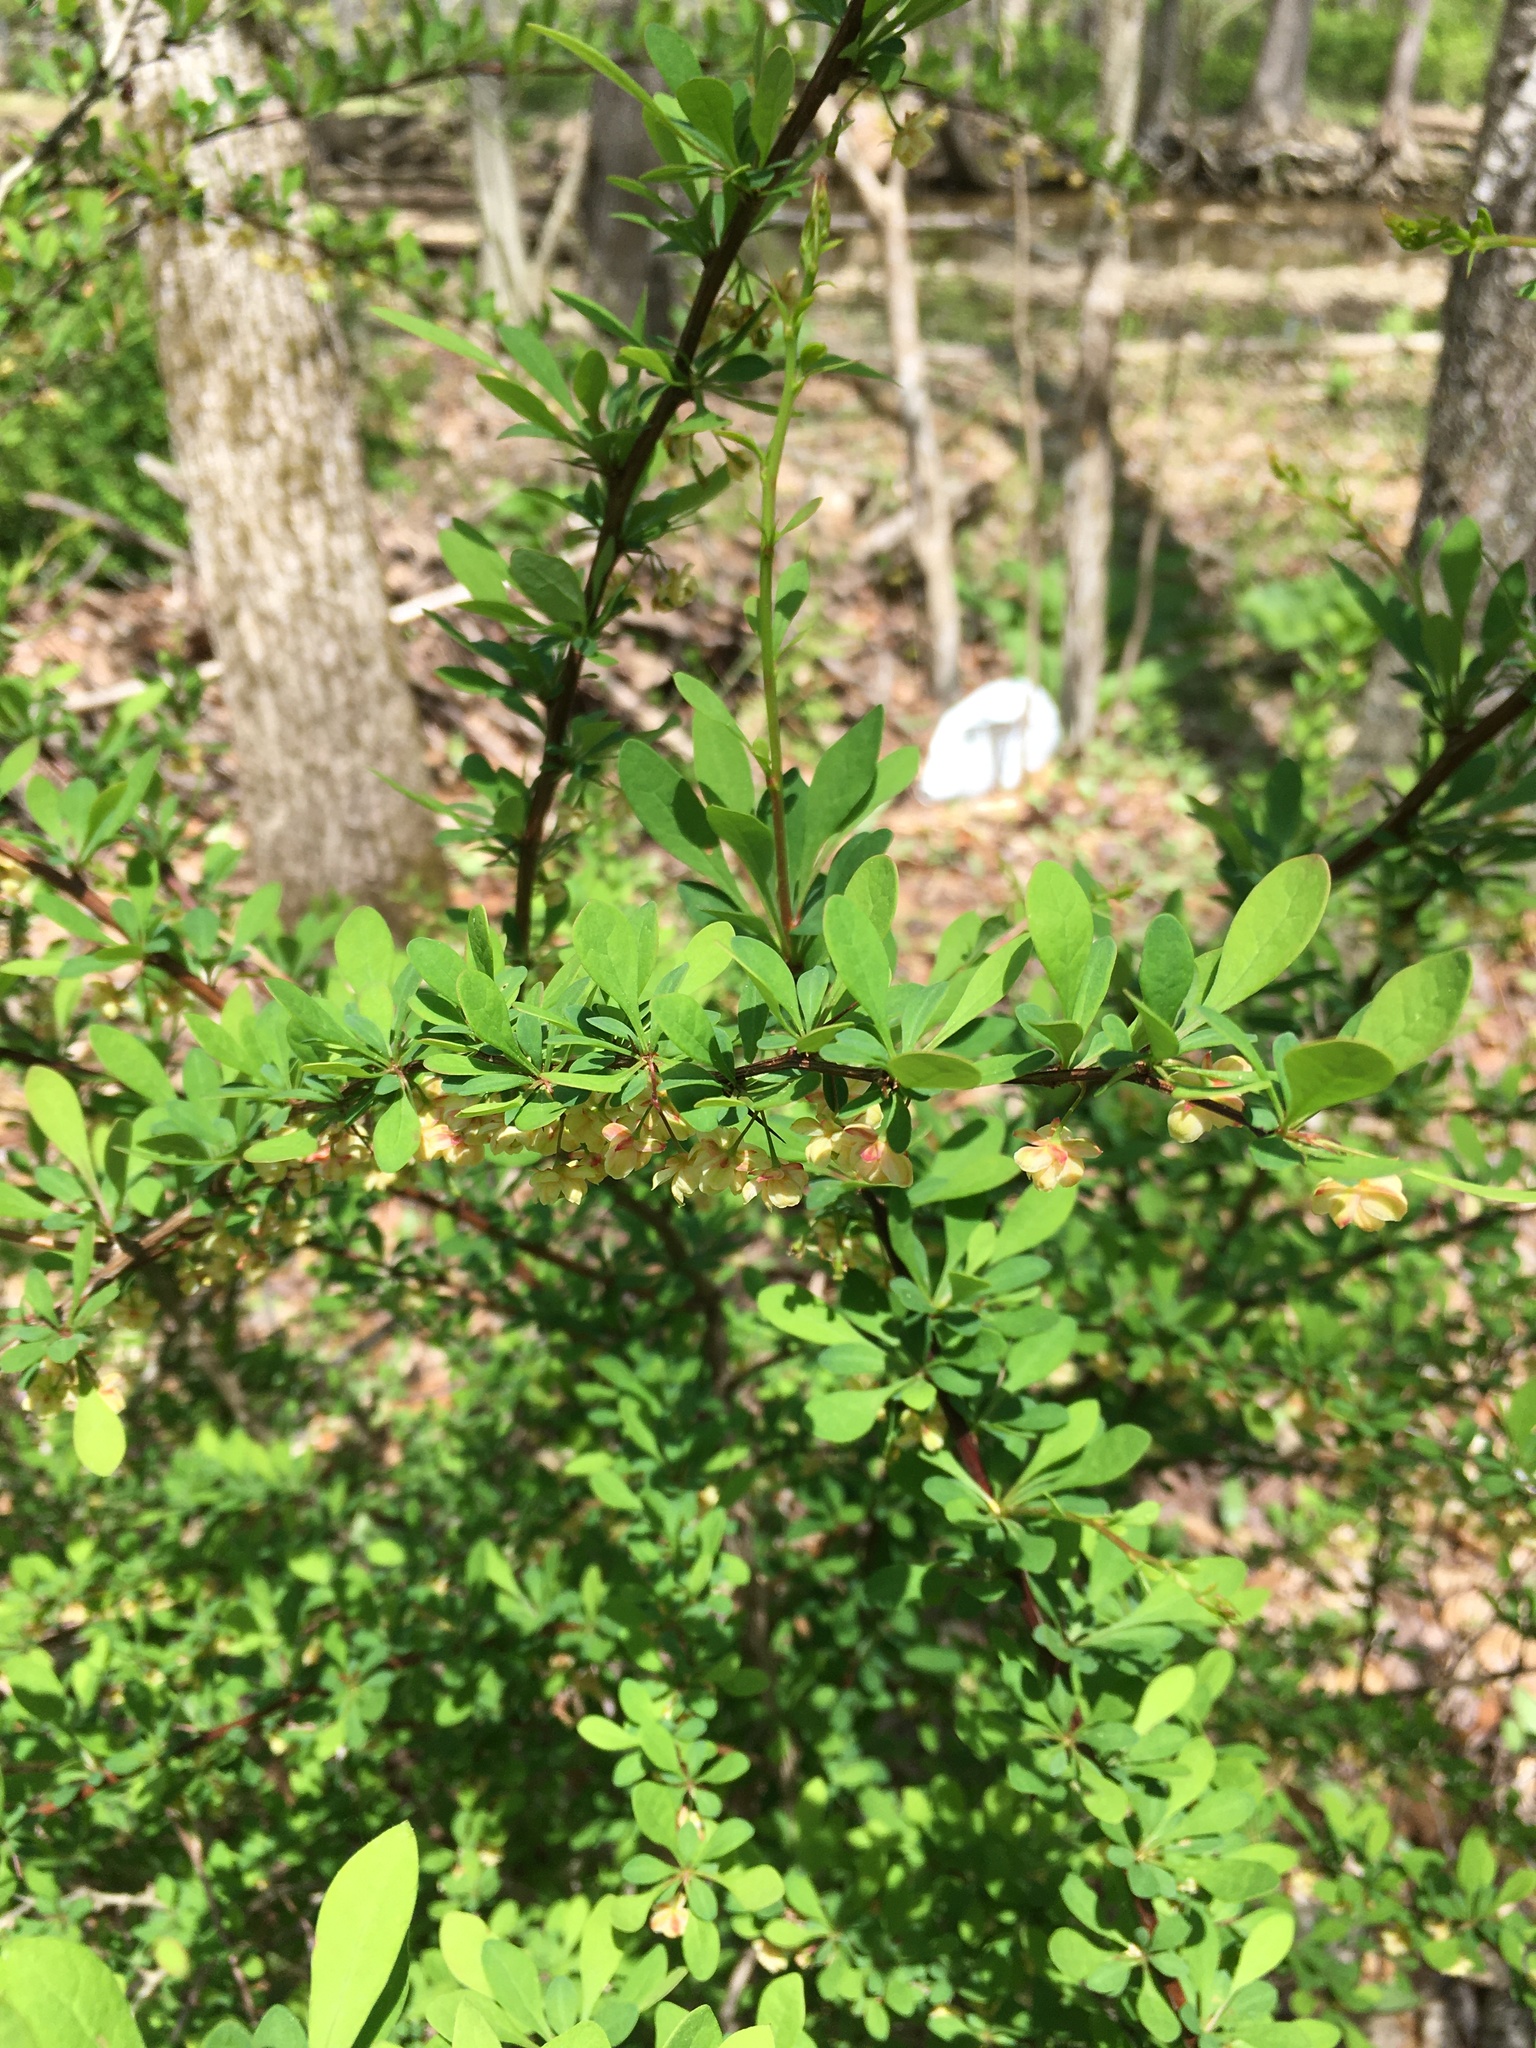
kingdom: Plantae
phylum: Tracheophyta
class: Magnoliopsida
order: Ranunculales
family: Berberidaceae
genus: Berberis
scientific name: Berberis thunbergii
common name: Japanese barberry
